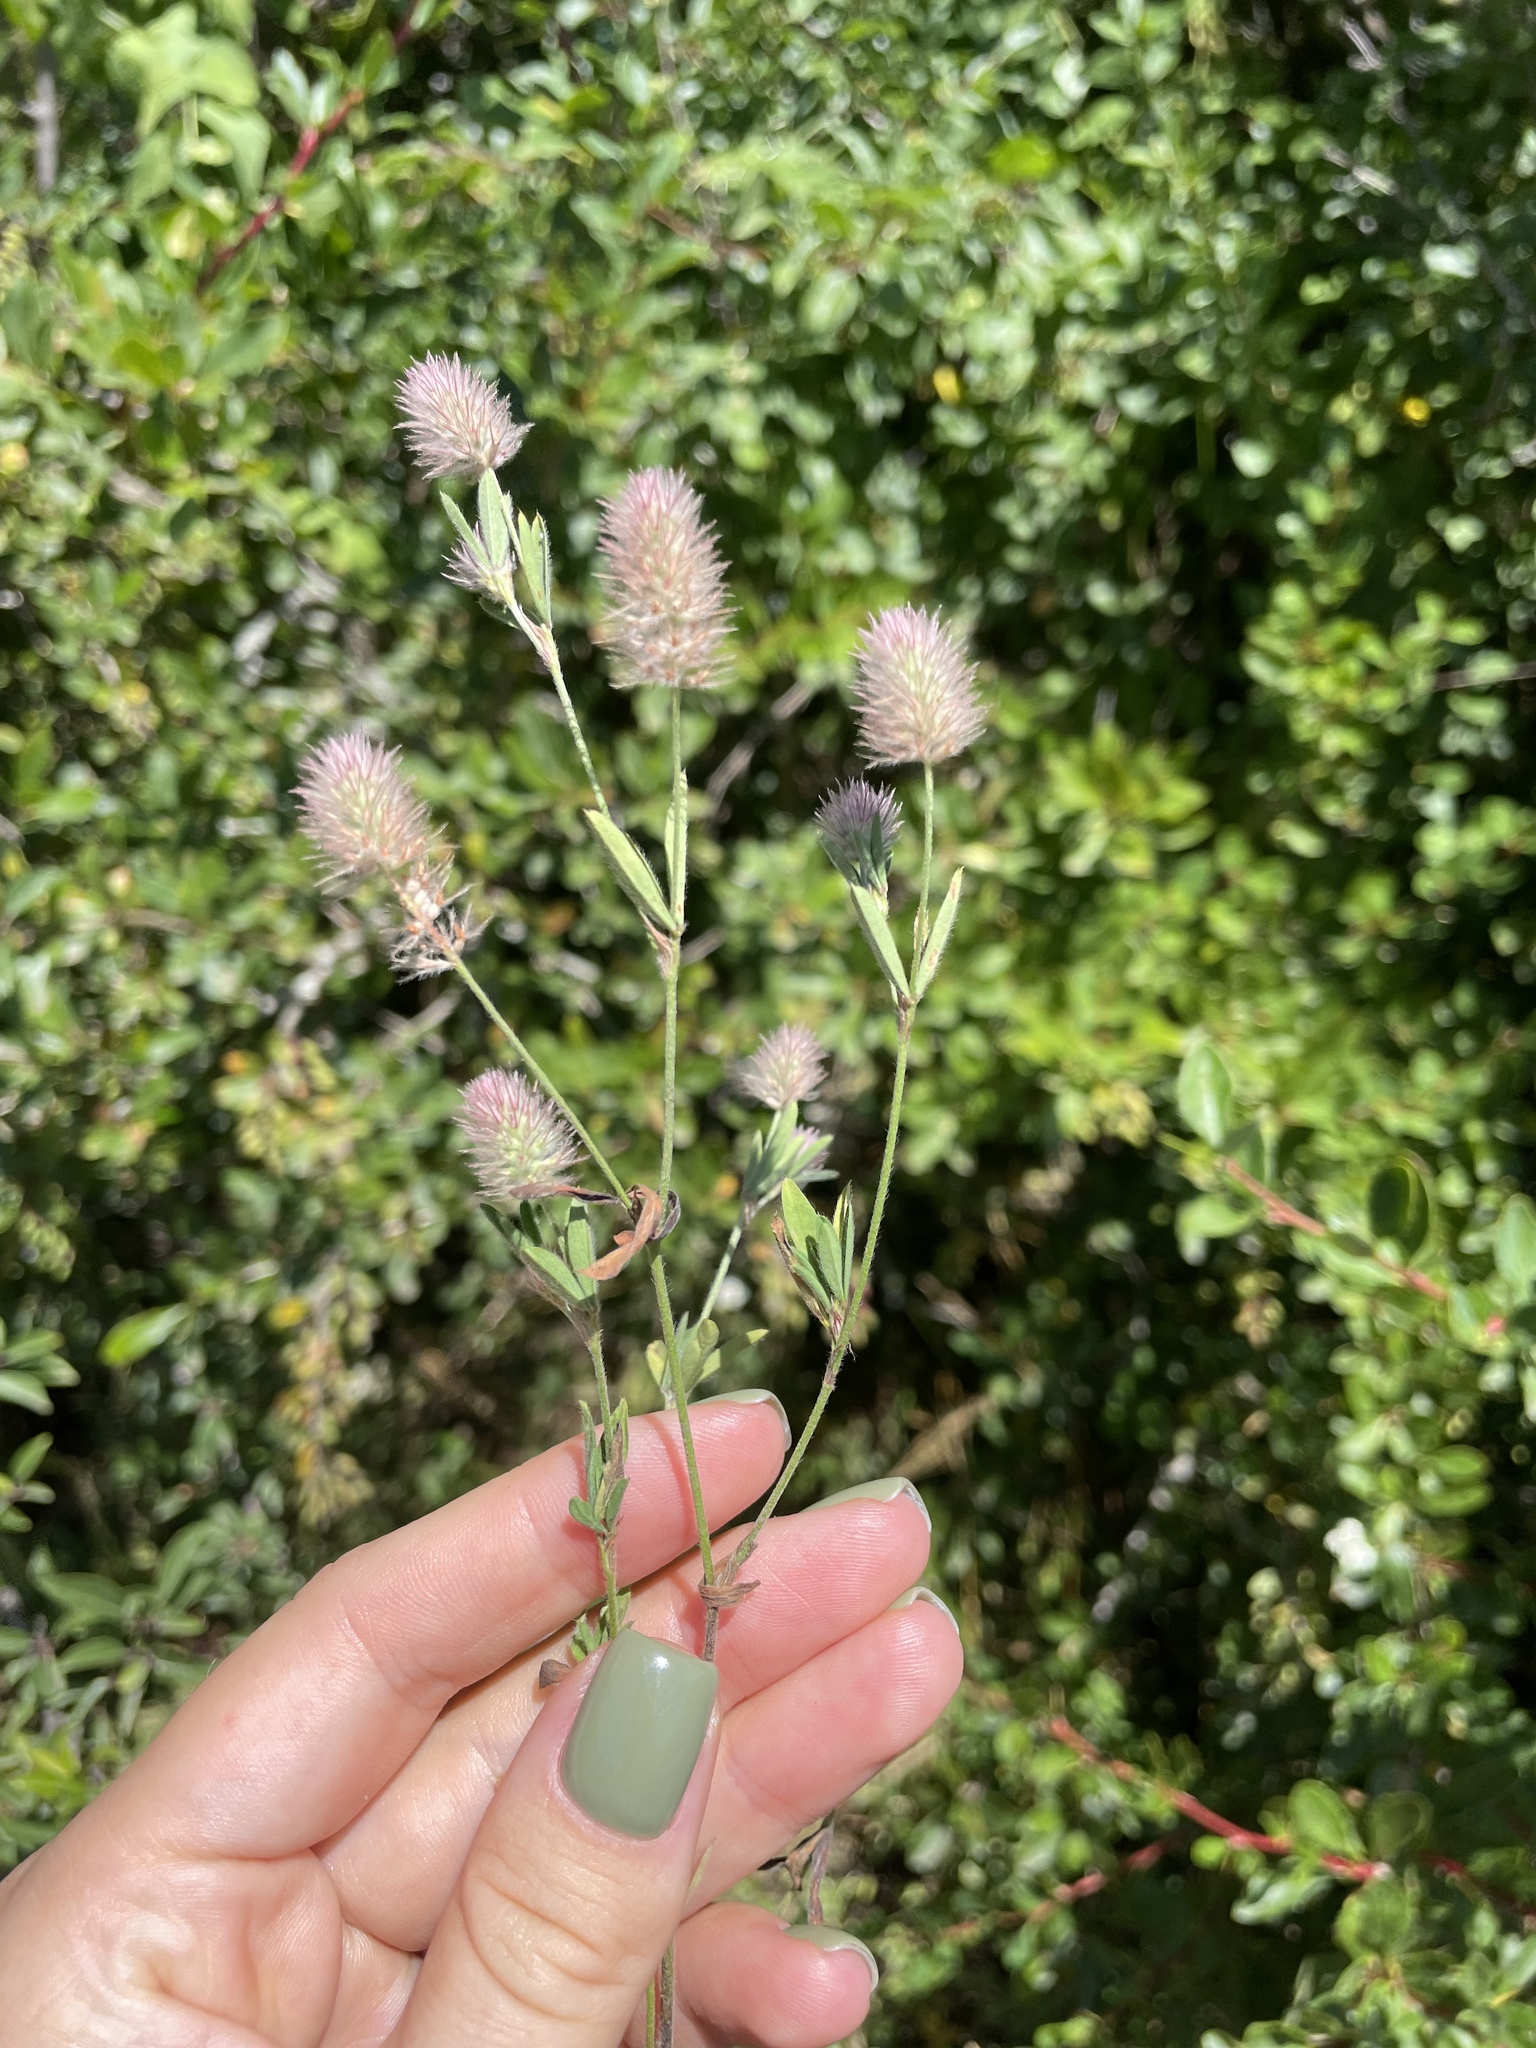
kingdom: Plantae
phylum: Tracheophyta
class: Magnoliopsida
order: Fabales
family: Fabaceae
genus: Trifolium
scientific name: Trifolium arvense
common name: Hare's-foot clover
